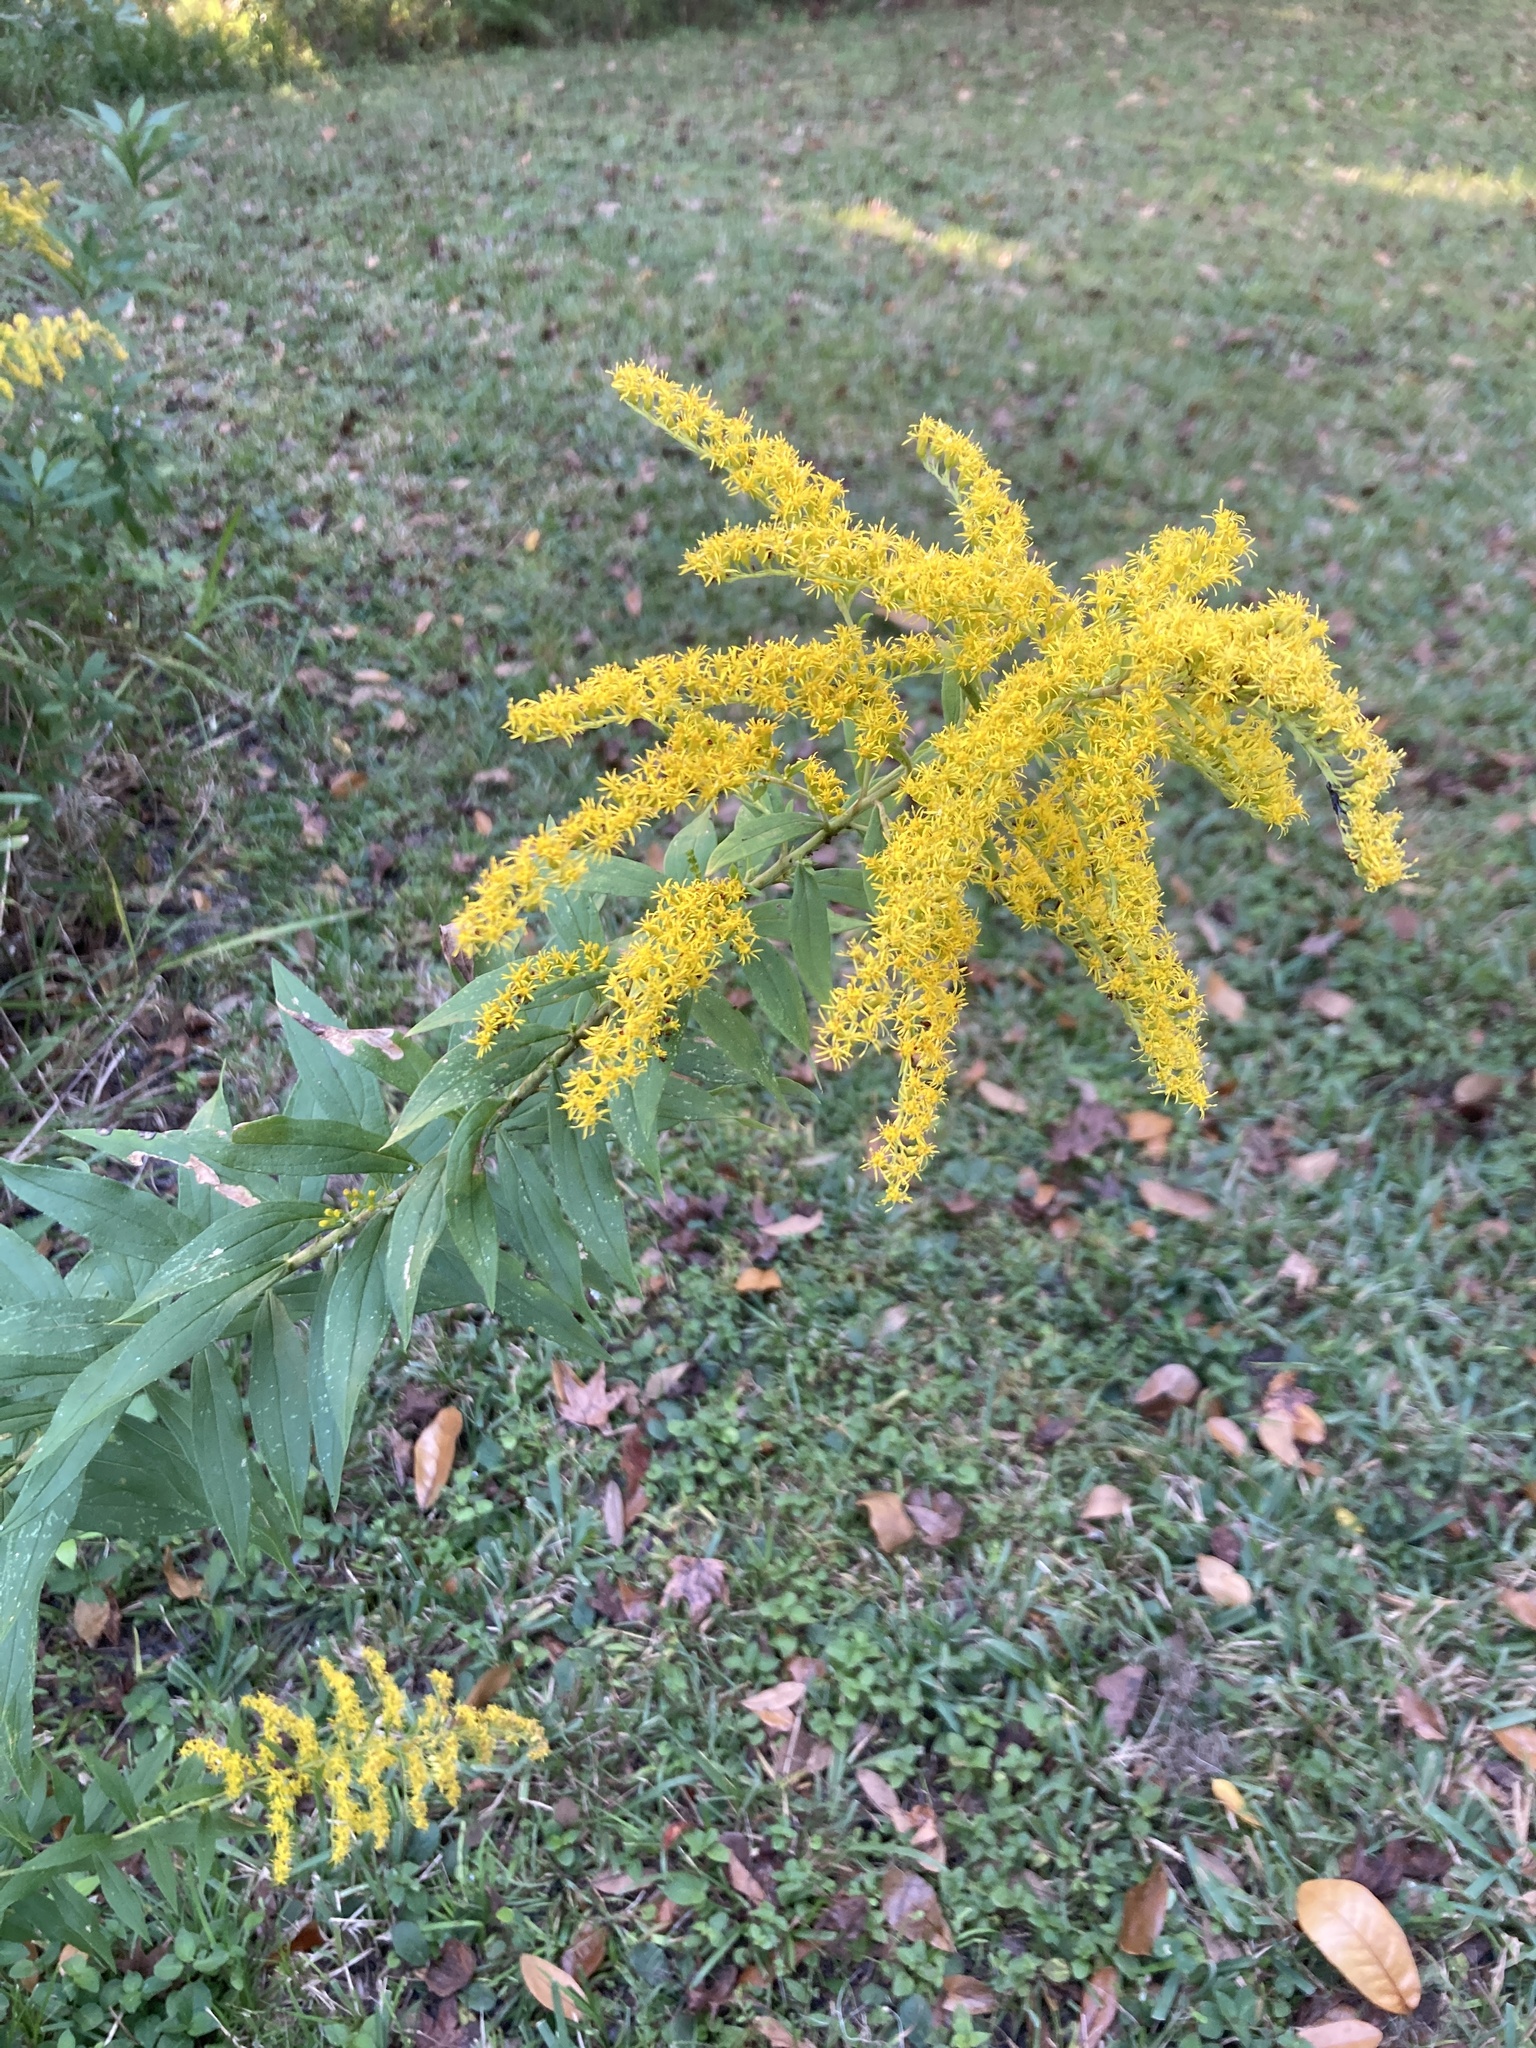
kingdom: Plantae
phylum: Tracheophyta
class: Magnoliopsida
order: Asterales
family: Asteraceae
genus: Solidago
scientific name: Solidago altissima
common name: Late goldenrod
